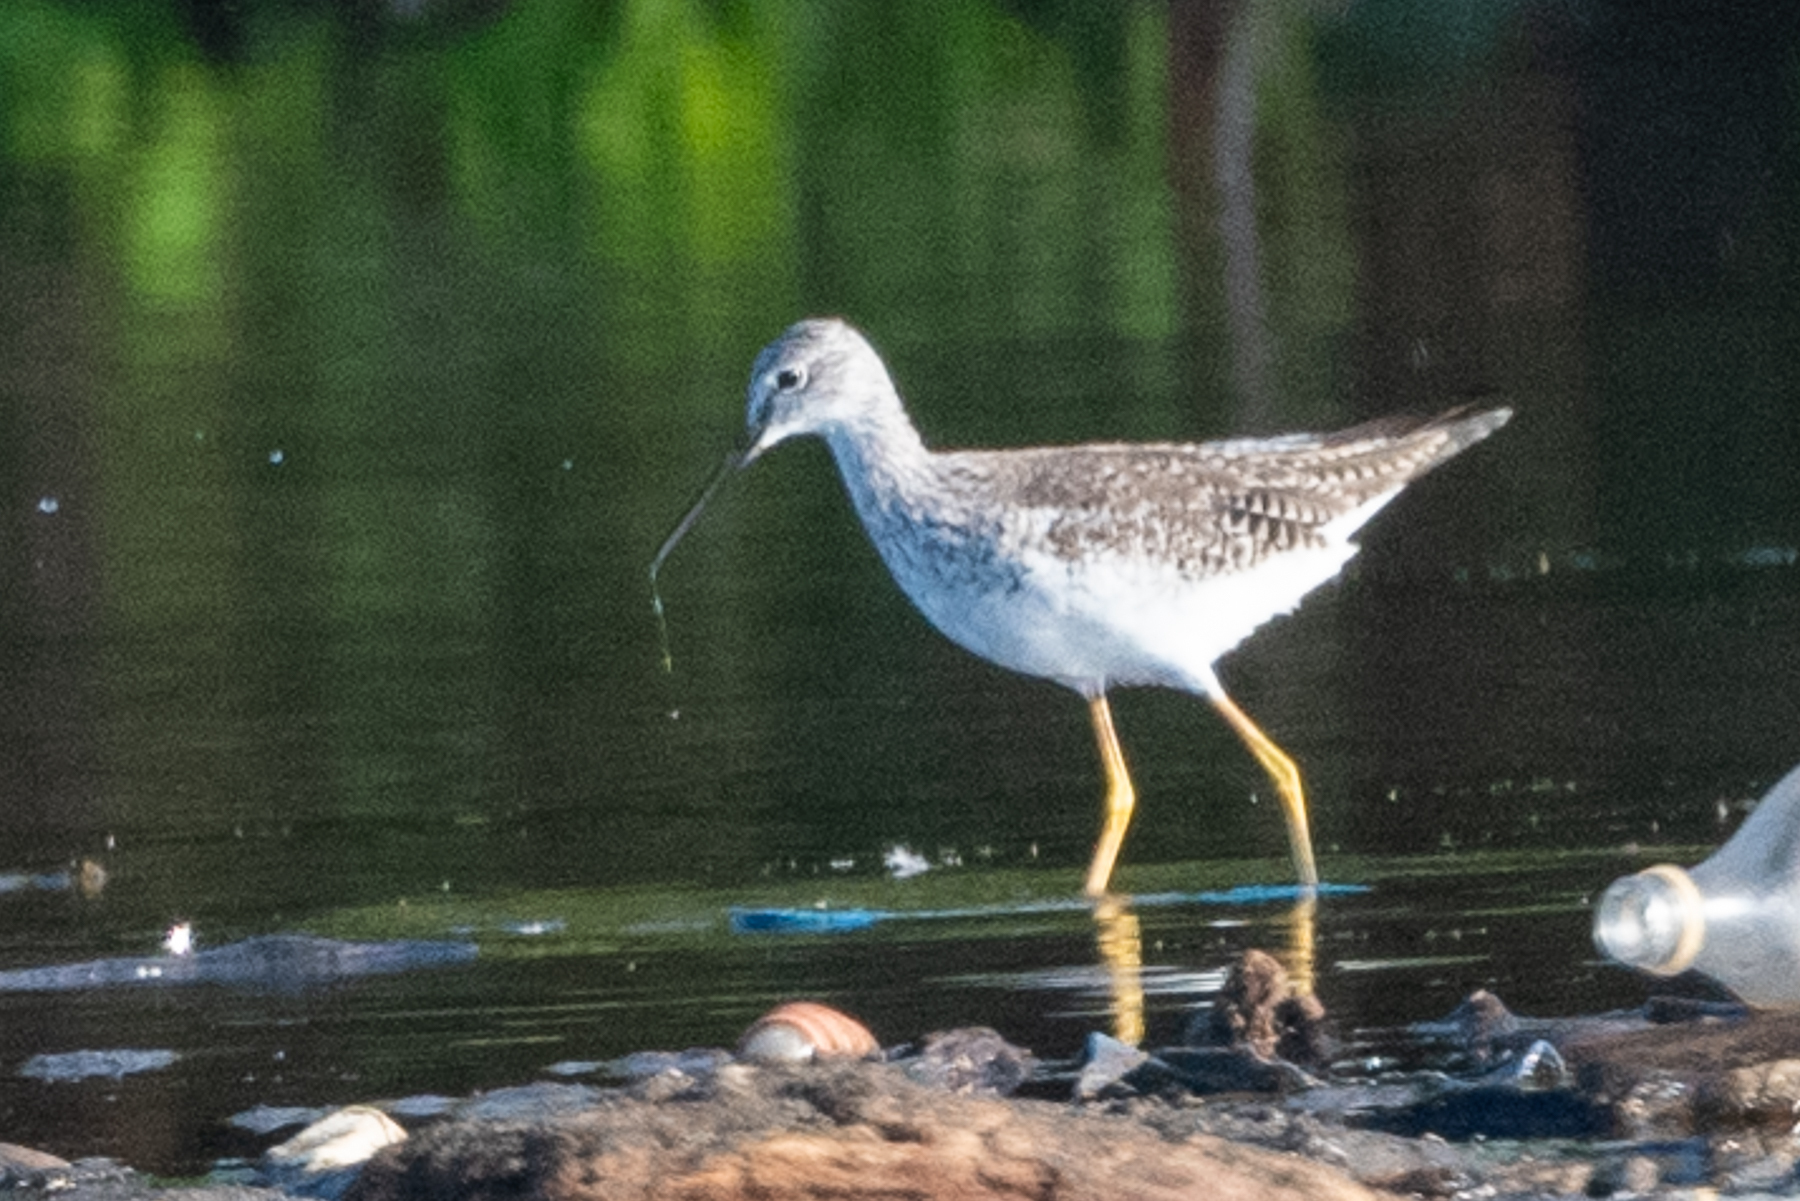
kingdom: Animalia
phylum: Chordata
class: Aves
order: Charadriiformes
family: Scolopacidae
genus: Tringa
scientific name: Tringa melanoleuca
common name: Greater yellowlegs
